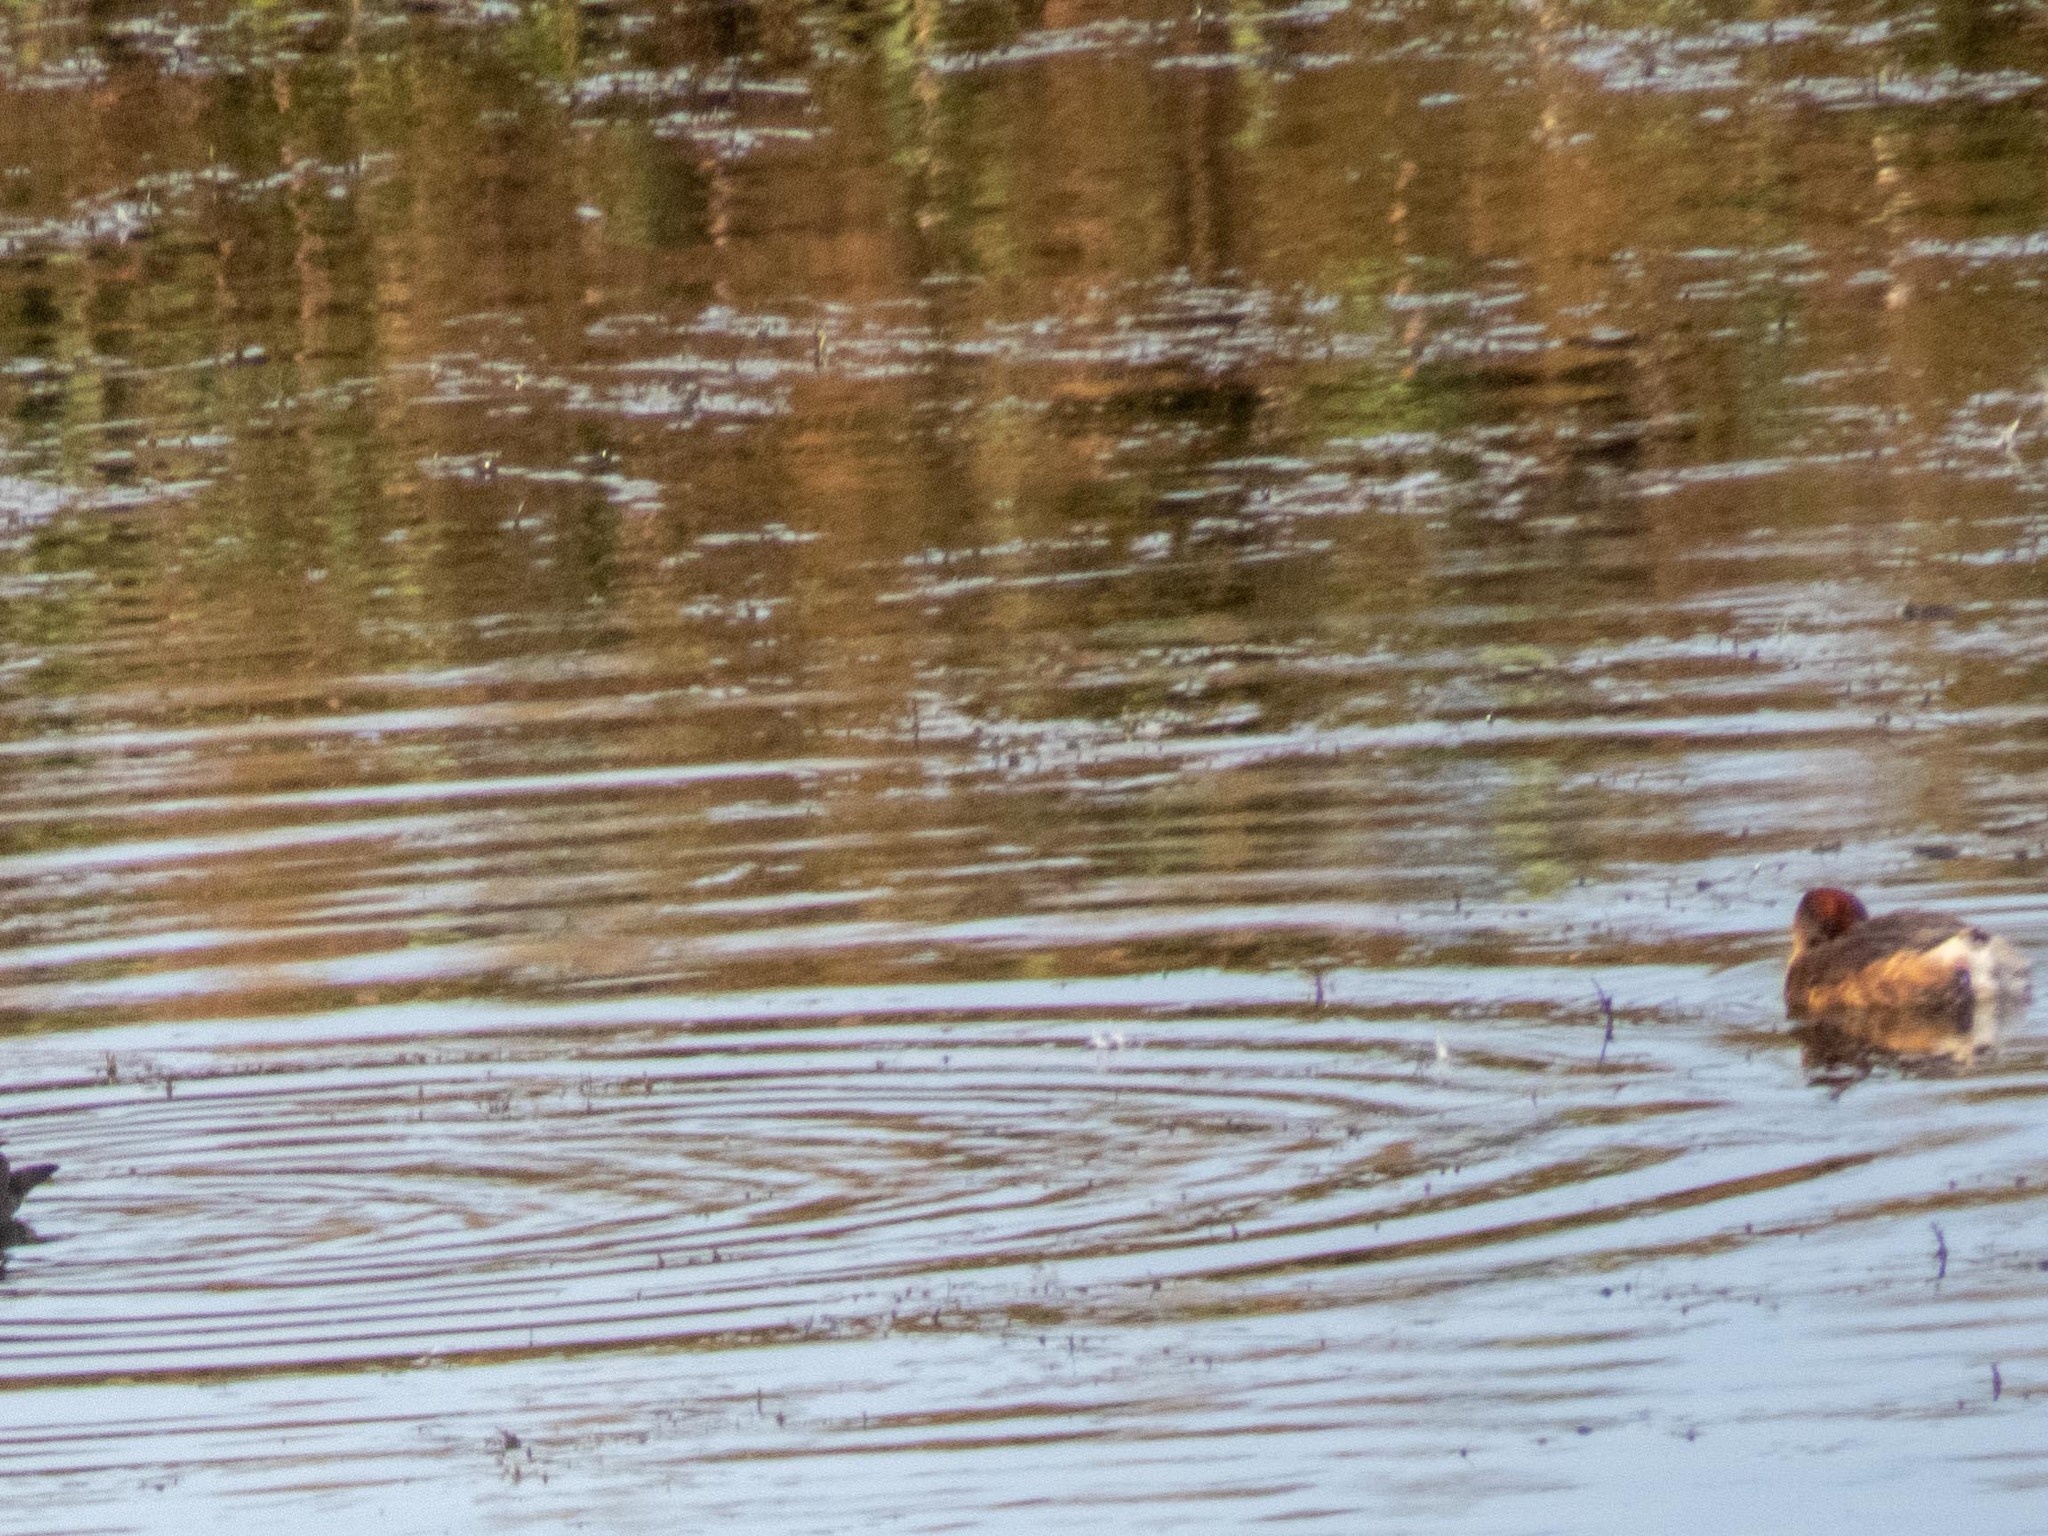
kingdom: Animalia
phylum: Chordata
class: Aves
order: Podicipediformes
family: Podicipedidae
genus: Tachybaptus
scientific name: Tachybaptus ruficollis
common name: Little grebe
